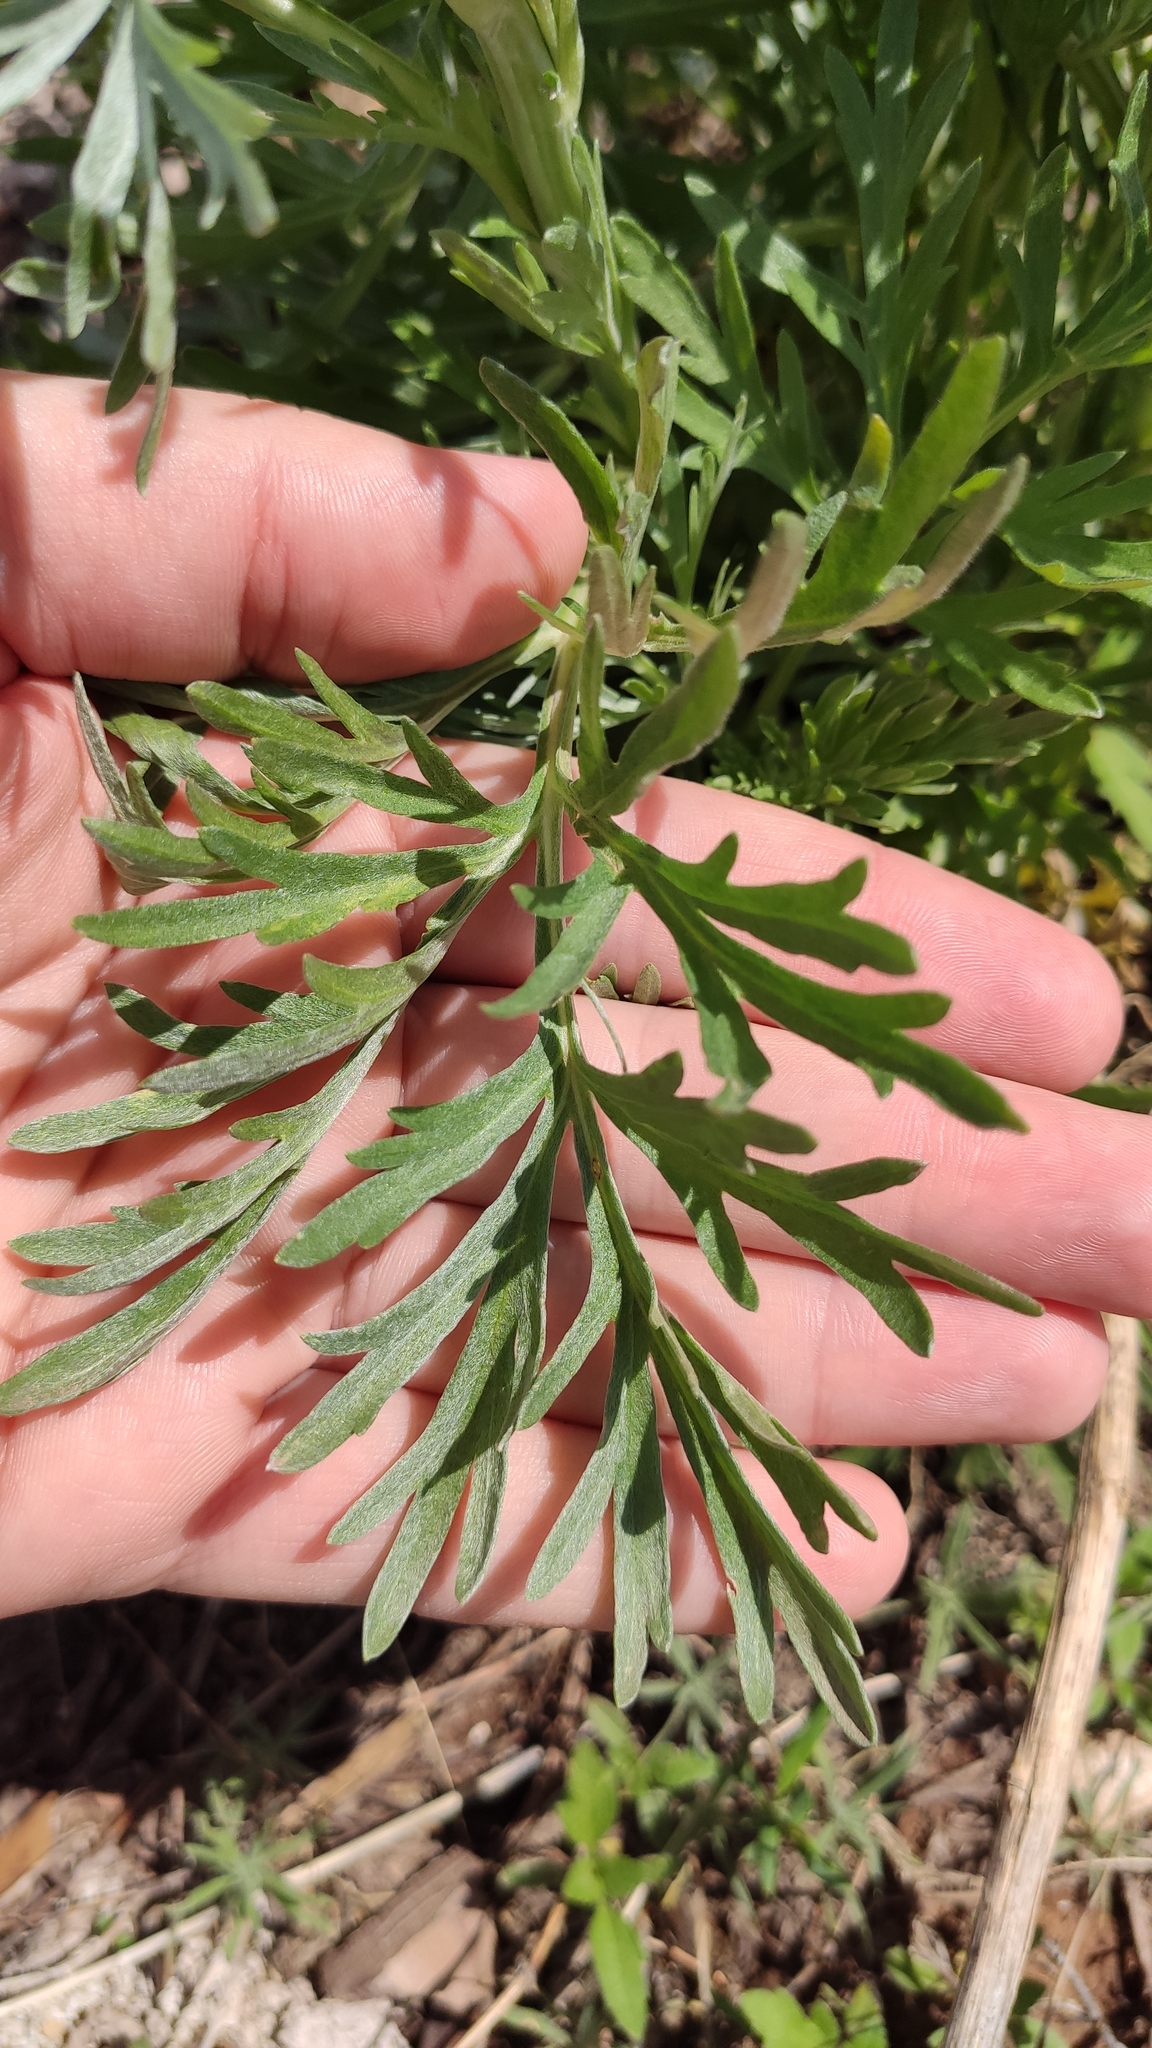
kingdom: Plantae
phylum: Tracheophyta
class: Magnoliopsida
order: Asterales
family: Asteraceae
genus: Artemisia
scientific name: Artemisia sieversiana
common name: Sieversian wormwood
